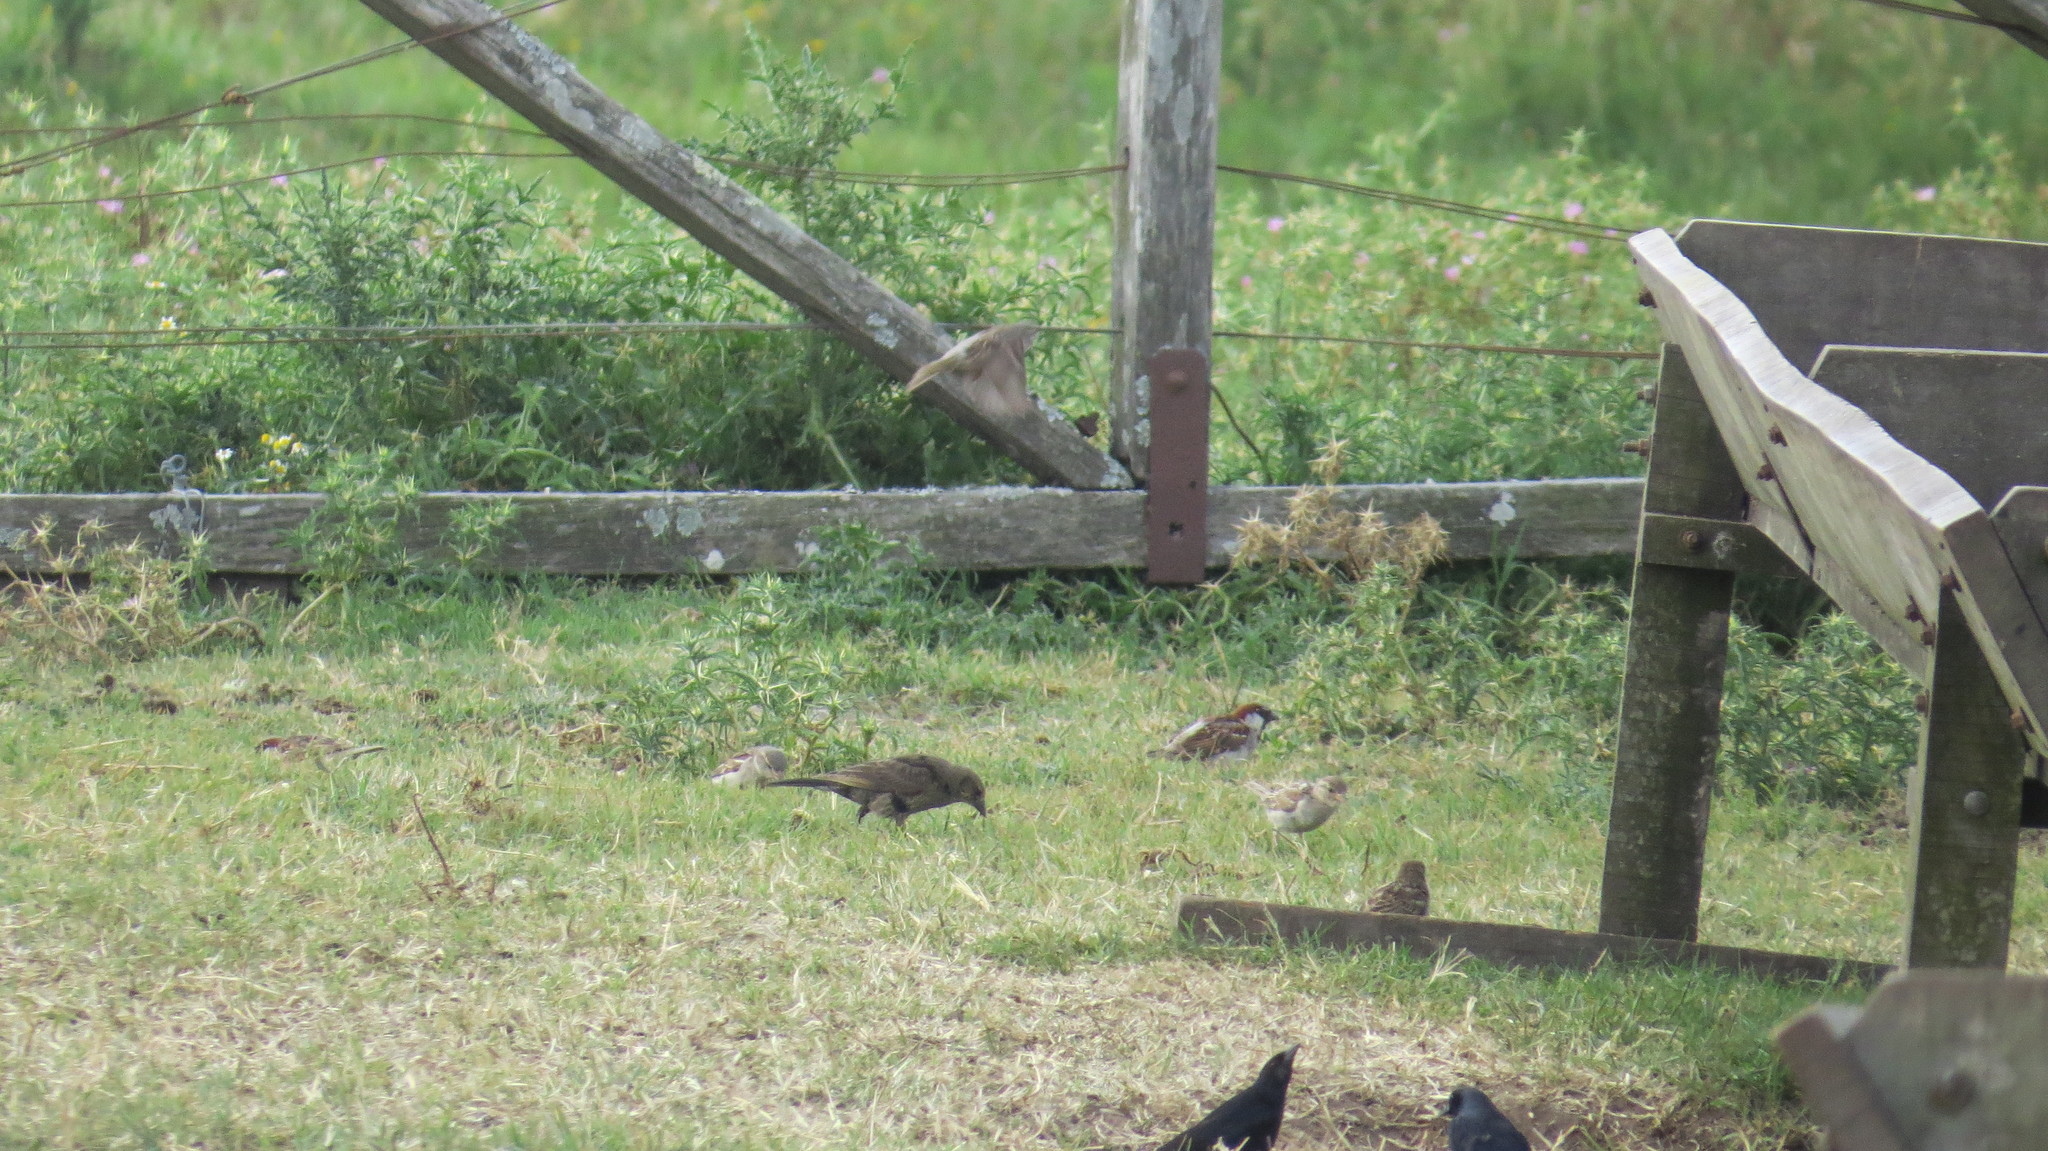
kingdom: Animalia
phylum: Chordata
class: Aves
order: Passeriformes
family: Passeridae
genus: Passer
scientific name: Passer domesticus
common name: House sparrow
